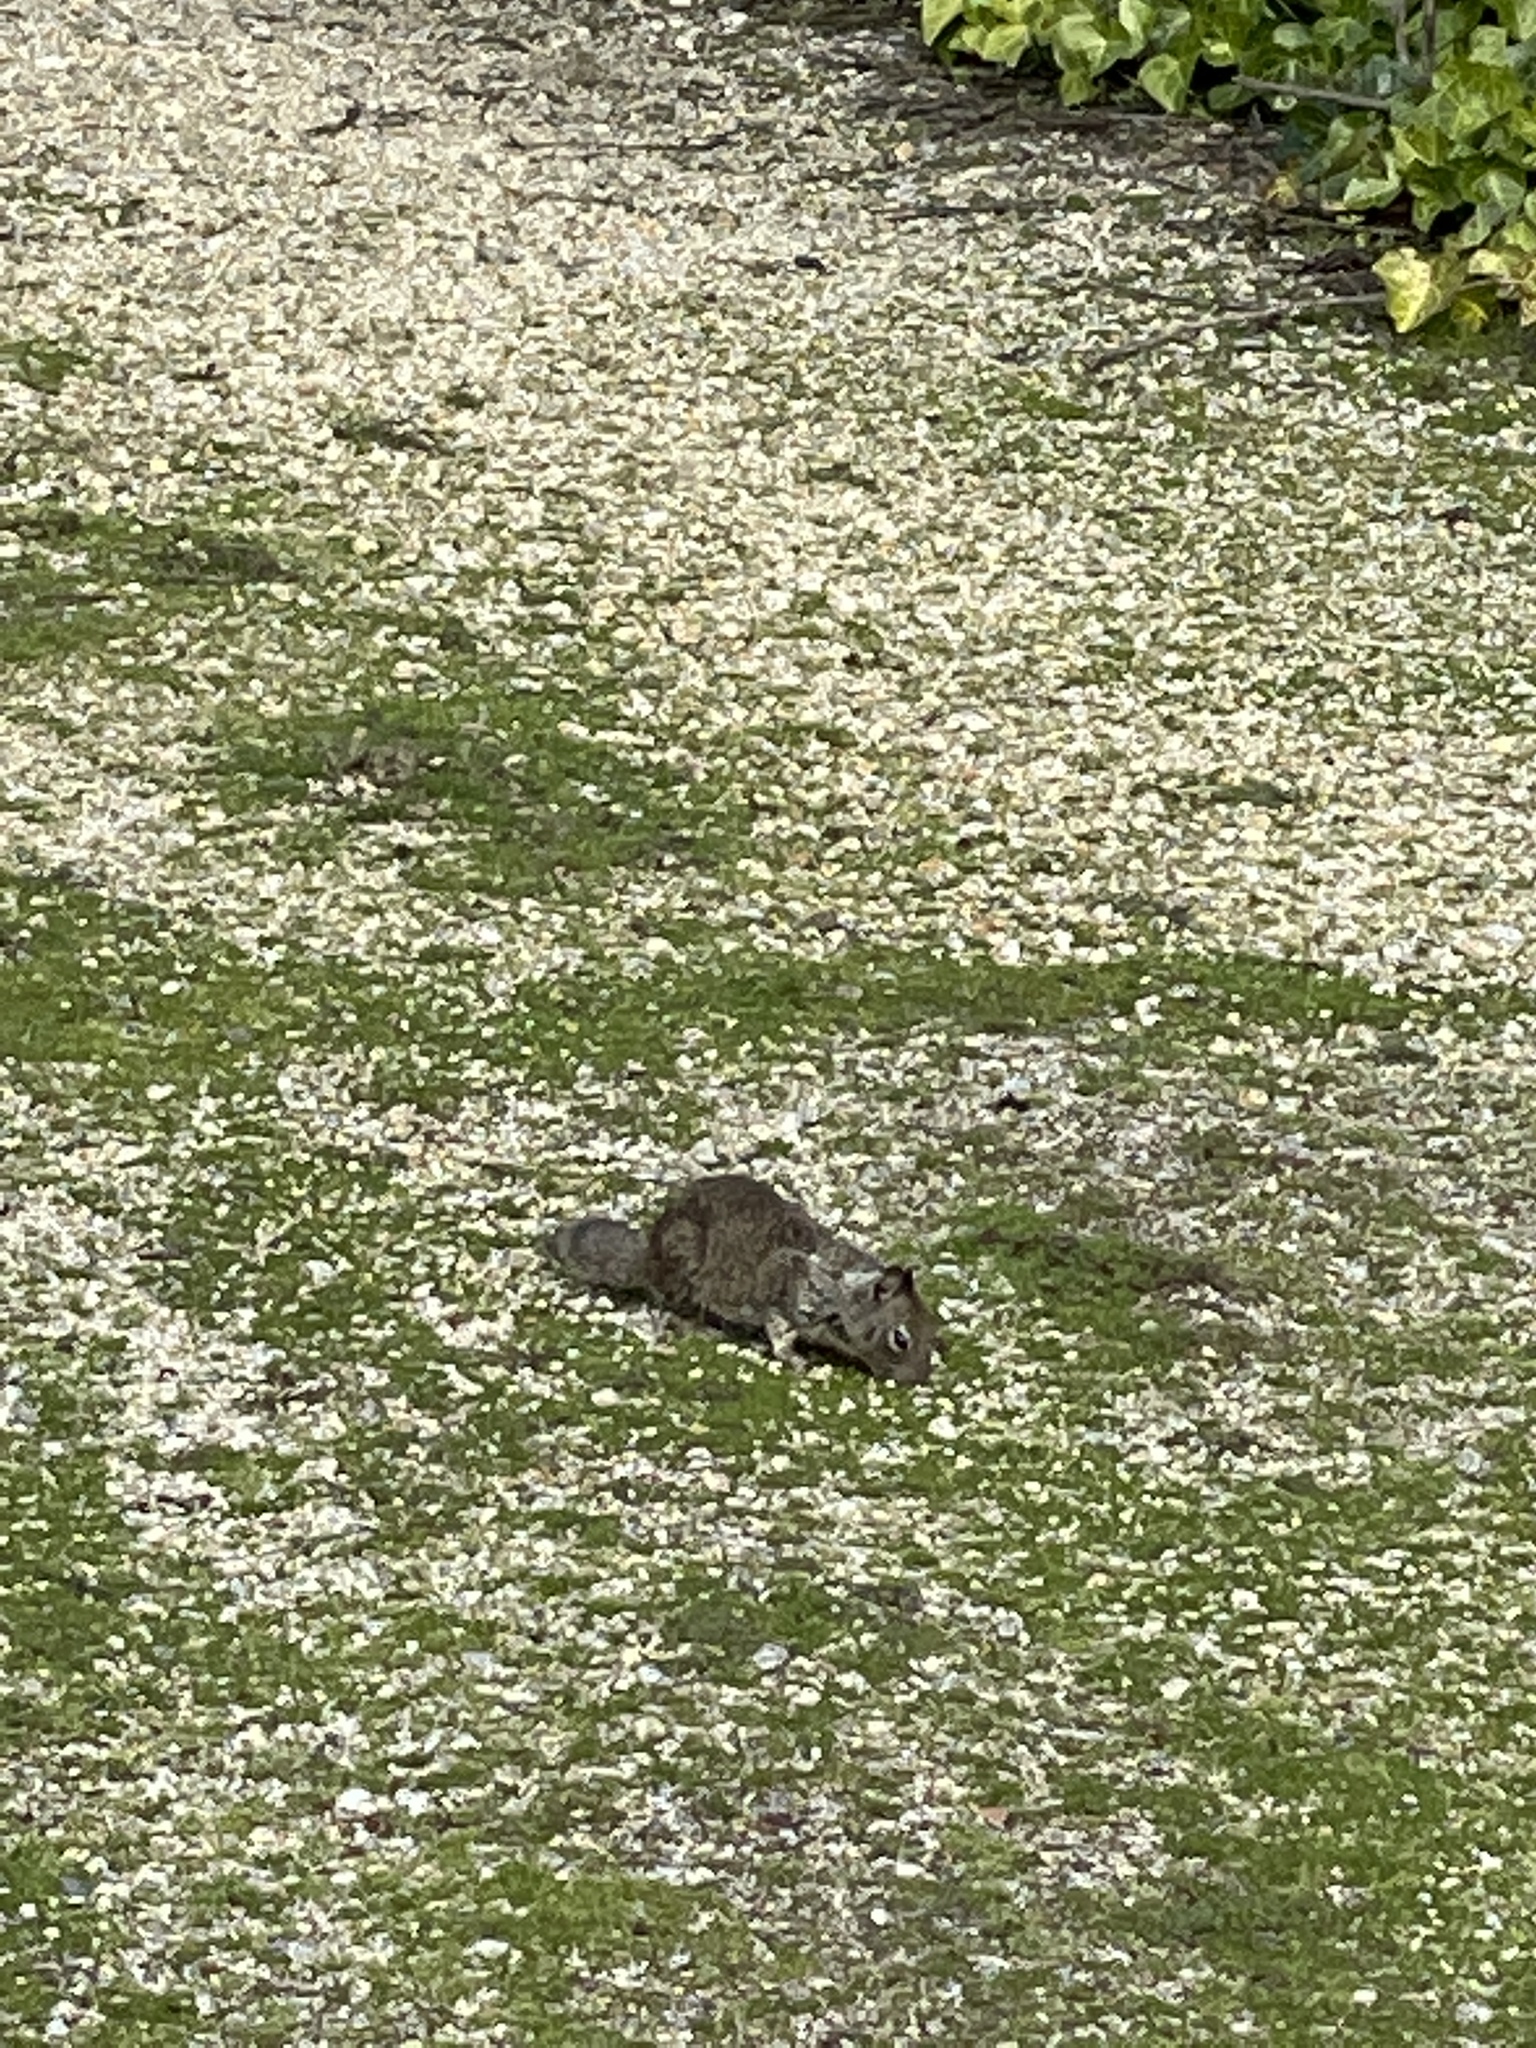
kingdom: Animalia
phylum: Chordata
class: Mammalia
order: Rodentia
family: Sciuridae
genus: Otospermophilus
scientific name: Otospermophilus beecheyi
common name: California ground squirrel
